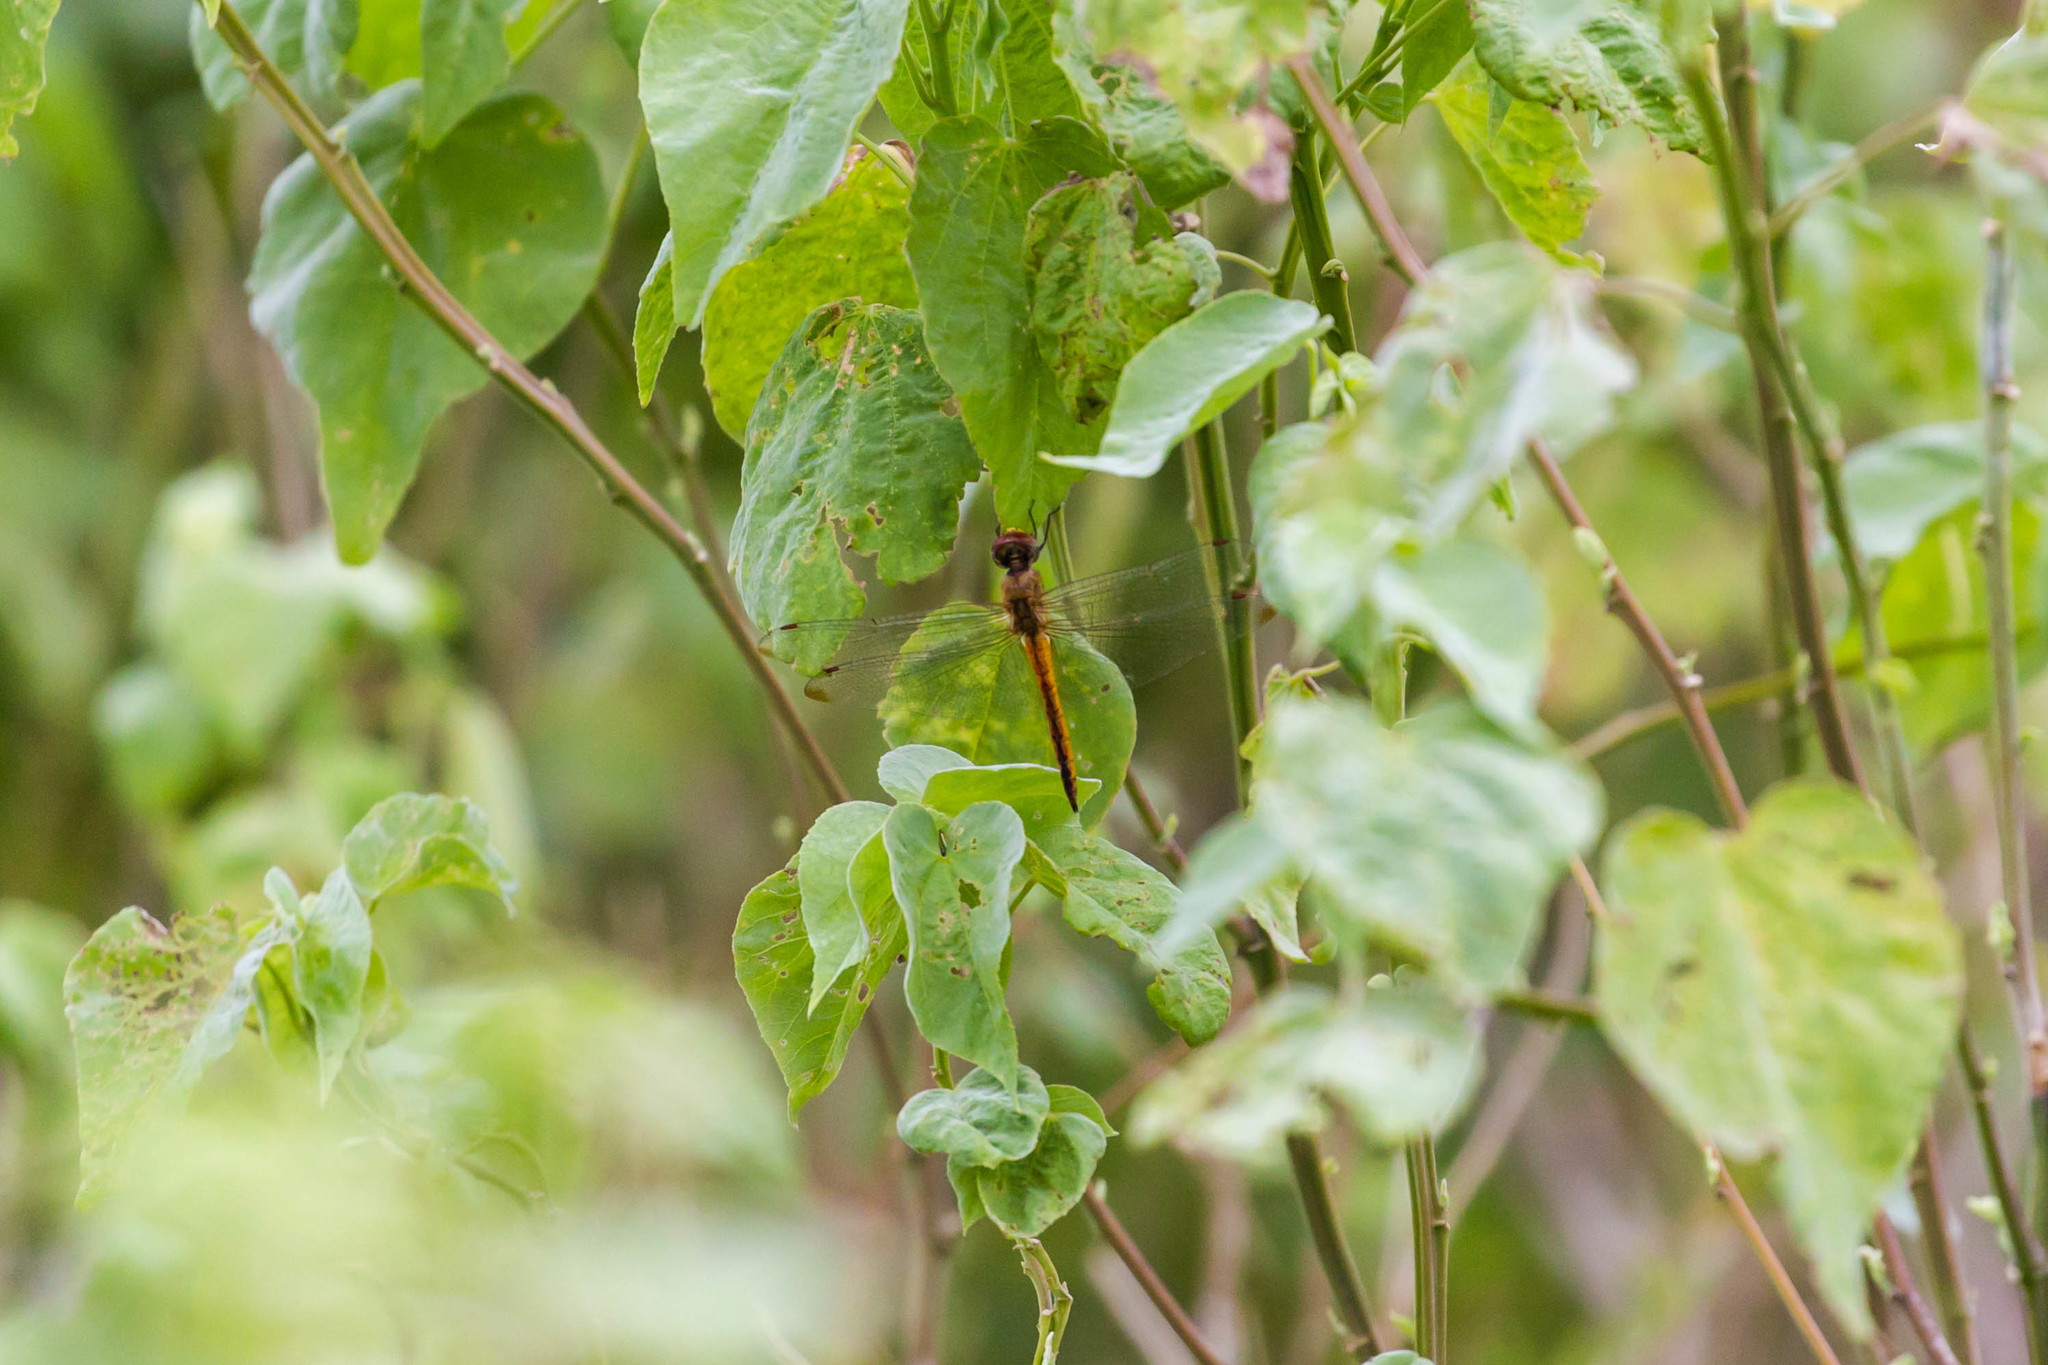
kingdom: Animalia
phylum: Arthropoda
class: Insecta
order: Odonata
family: Libellulidae
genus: Pantala
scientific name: Pantala flavescens
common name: Wandering glider
